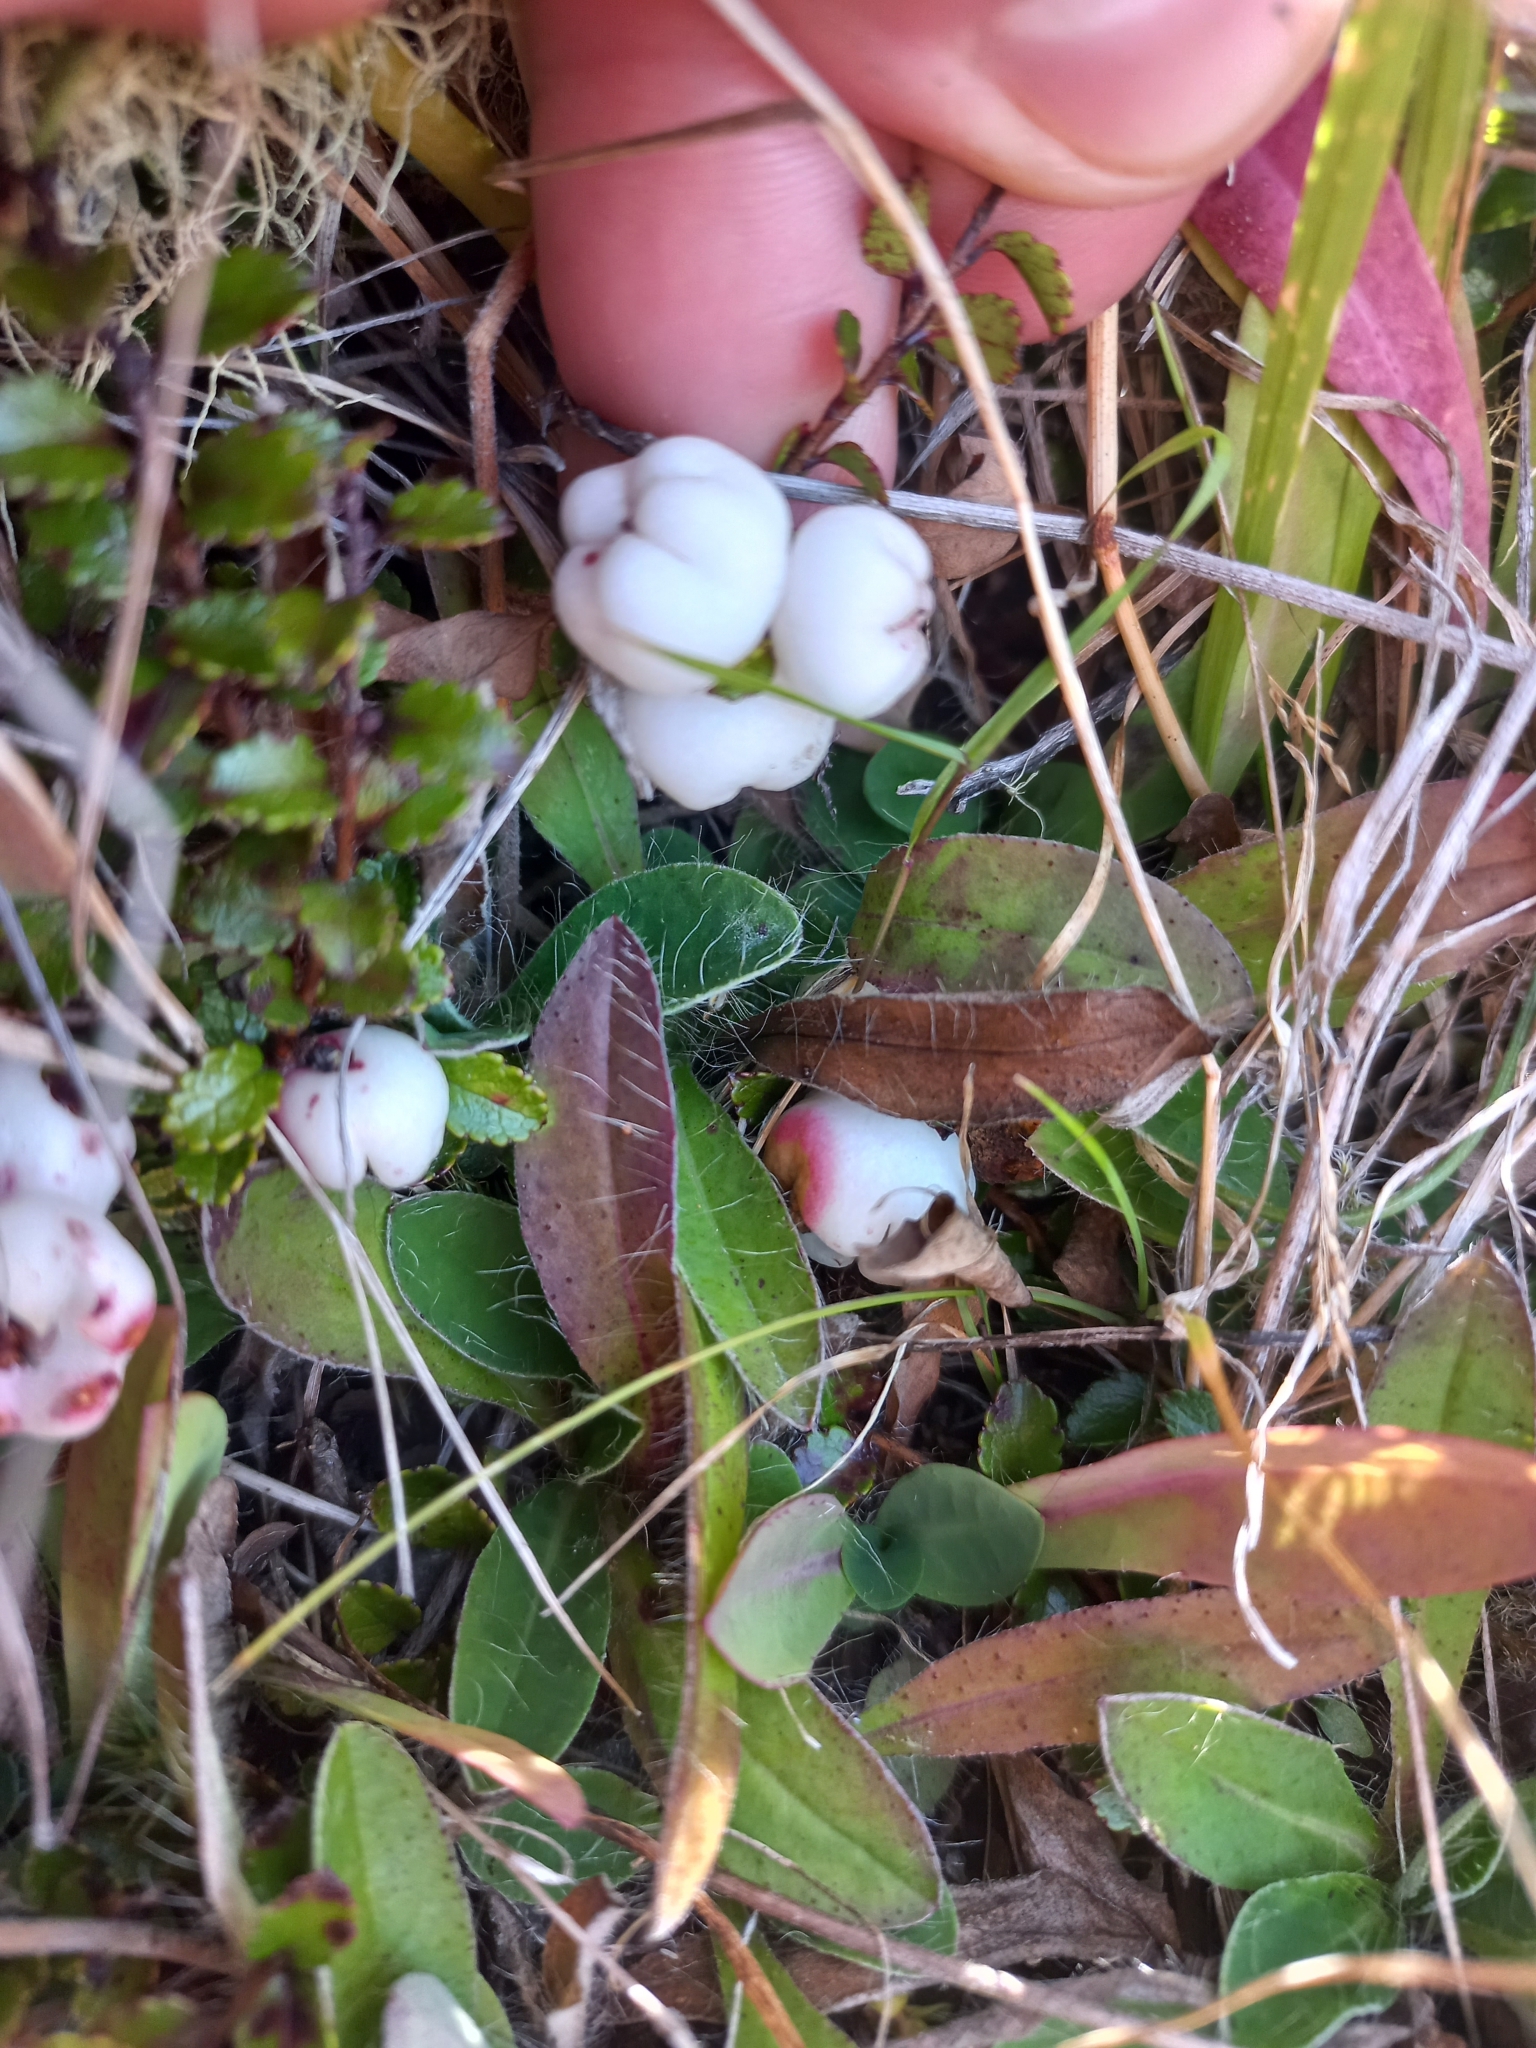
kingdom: Plantae
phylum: Tracheophyta
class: Magnoliopsida
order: Ericales
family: Ericaceae
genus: Gaultheria
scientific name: Gaultheria depressa
